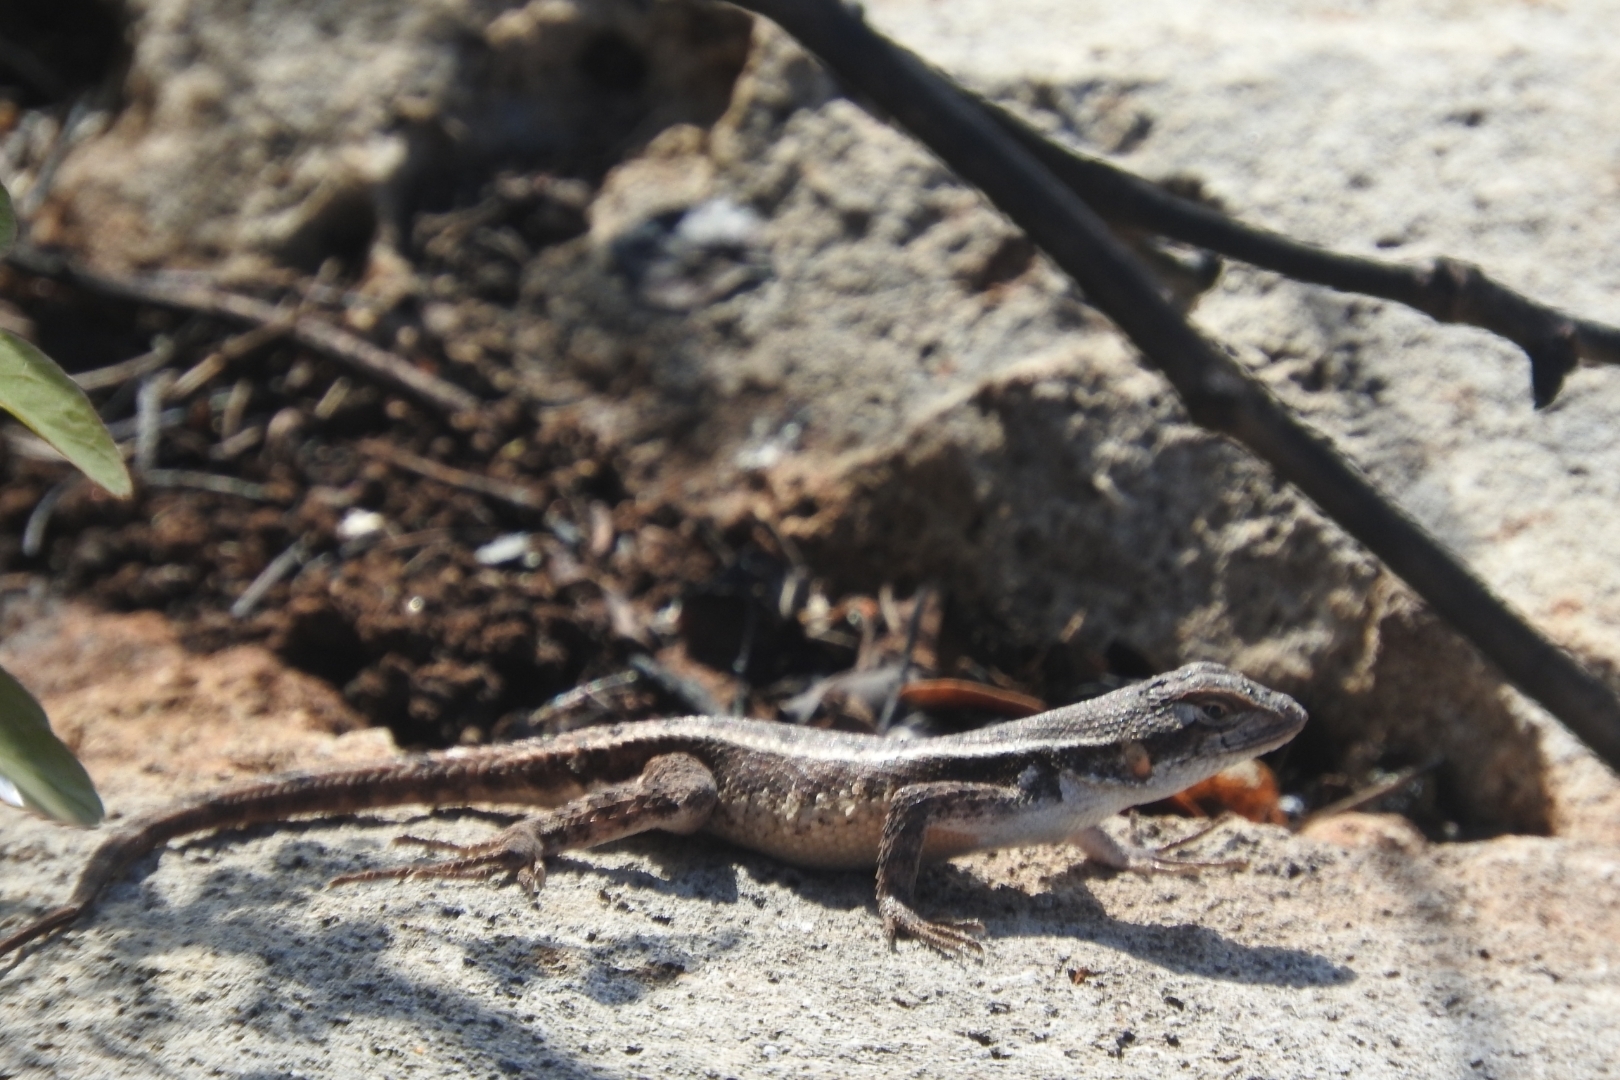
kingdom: Animalia
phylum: Chordata
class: Squamata
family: Phrynosomatidae
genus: Sceloporus
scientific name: Sceloporus chrysostictus
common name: Yellow-spotted spiny lizard
